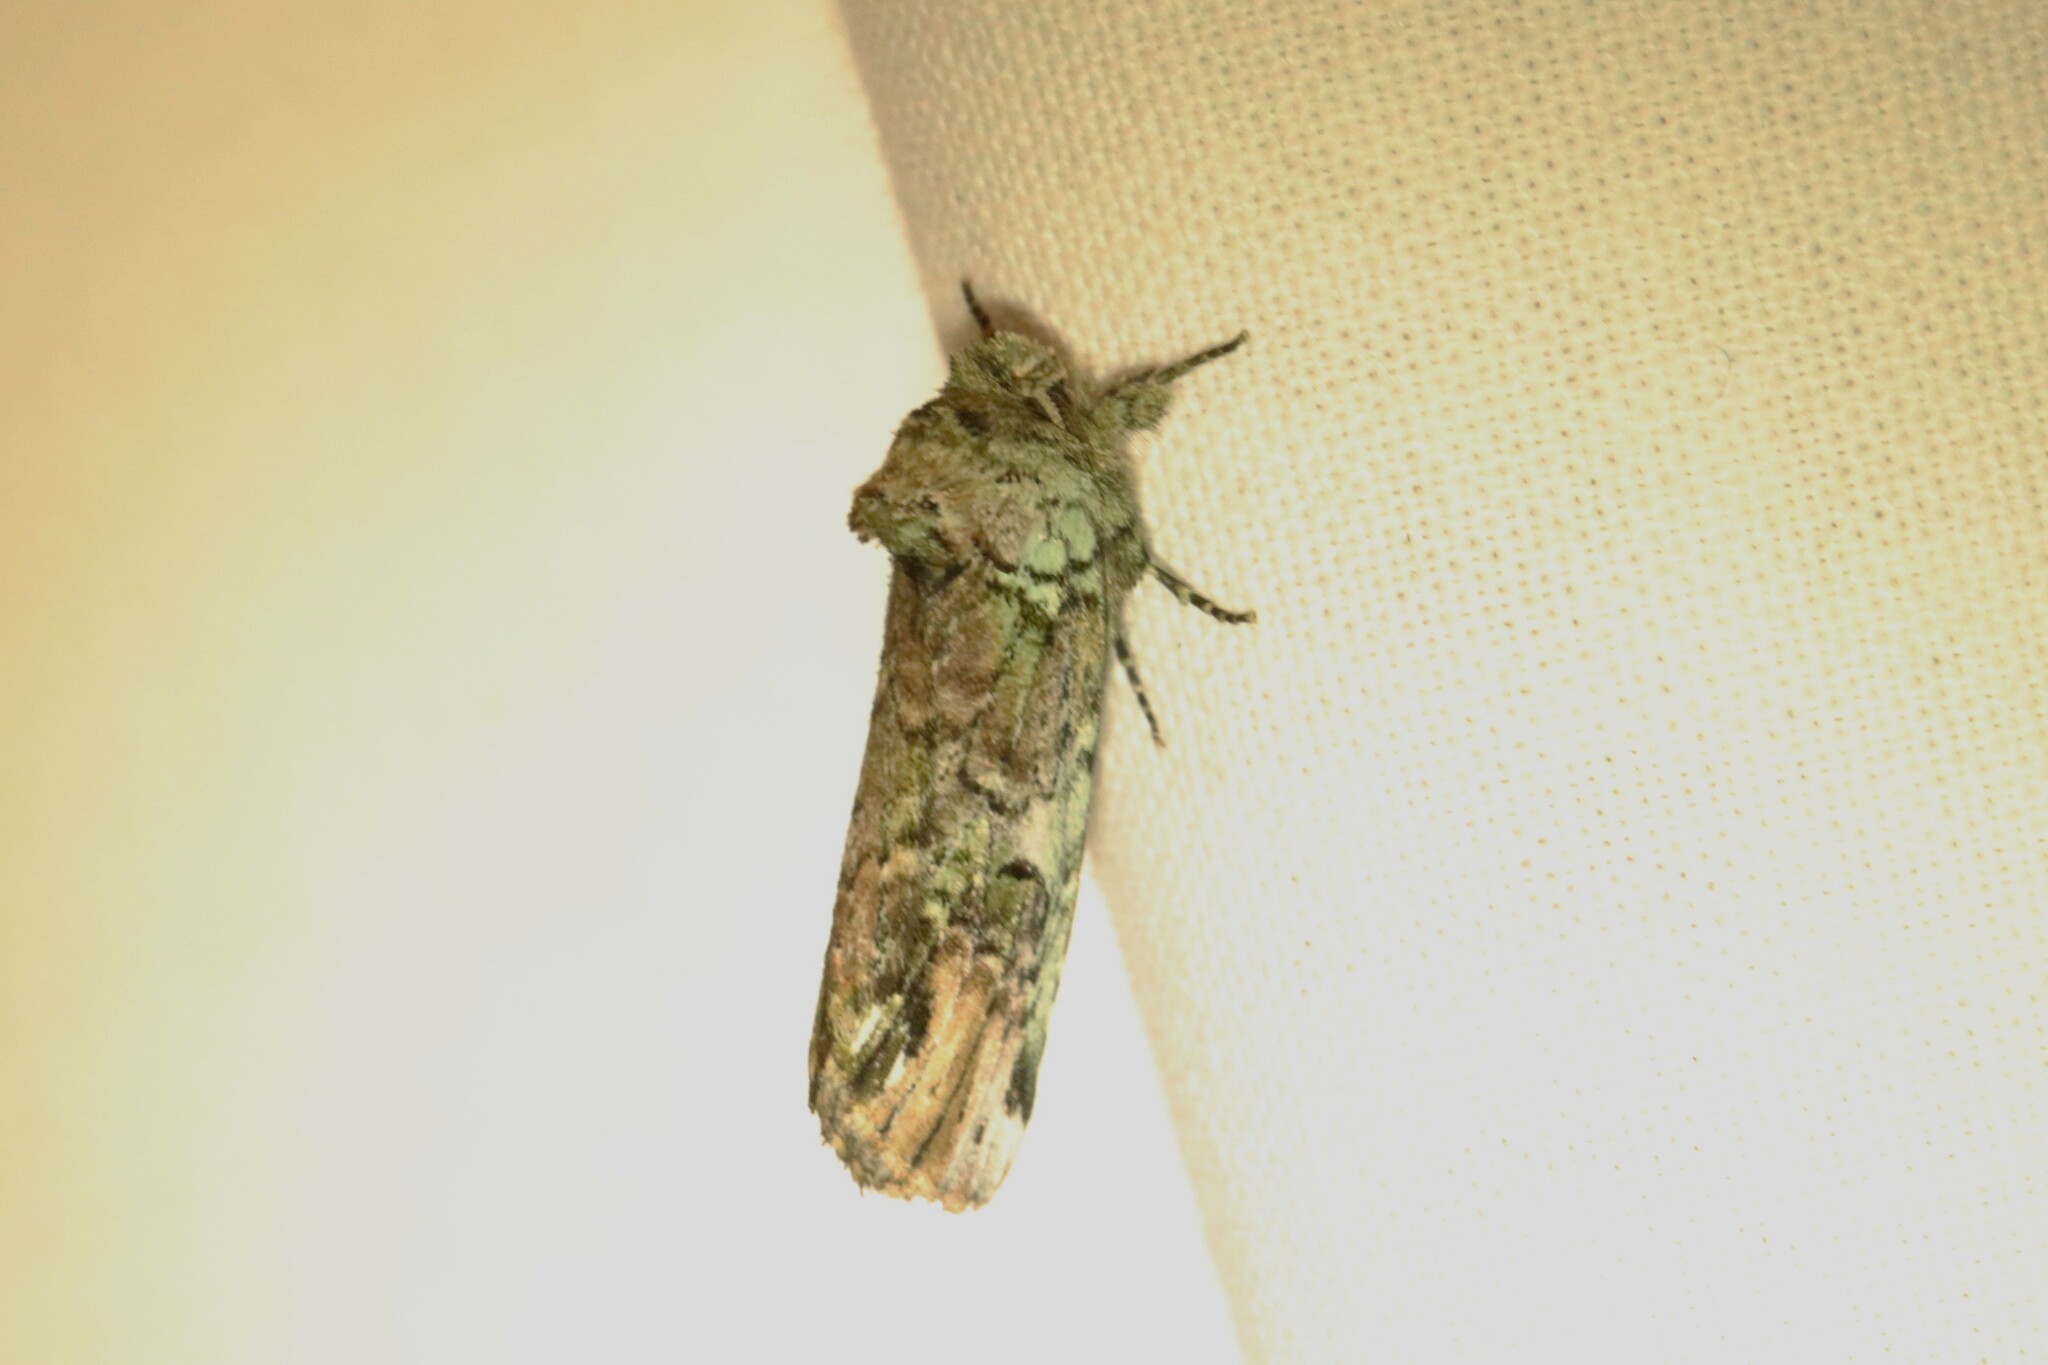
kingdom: Animalia
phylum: Arthropoda
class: Insecta
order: Lepidoptera
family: Notodontidae
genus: Schizura
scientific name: Schizura
